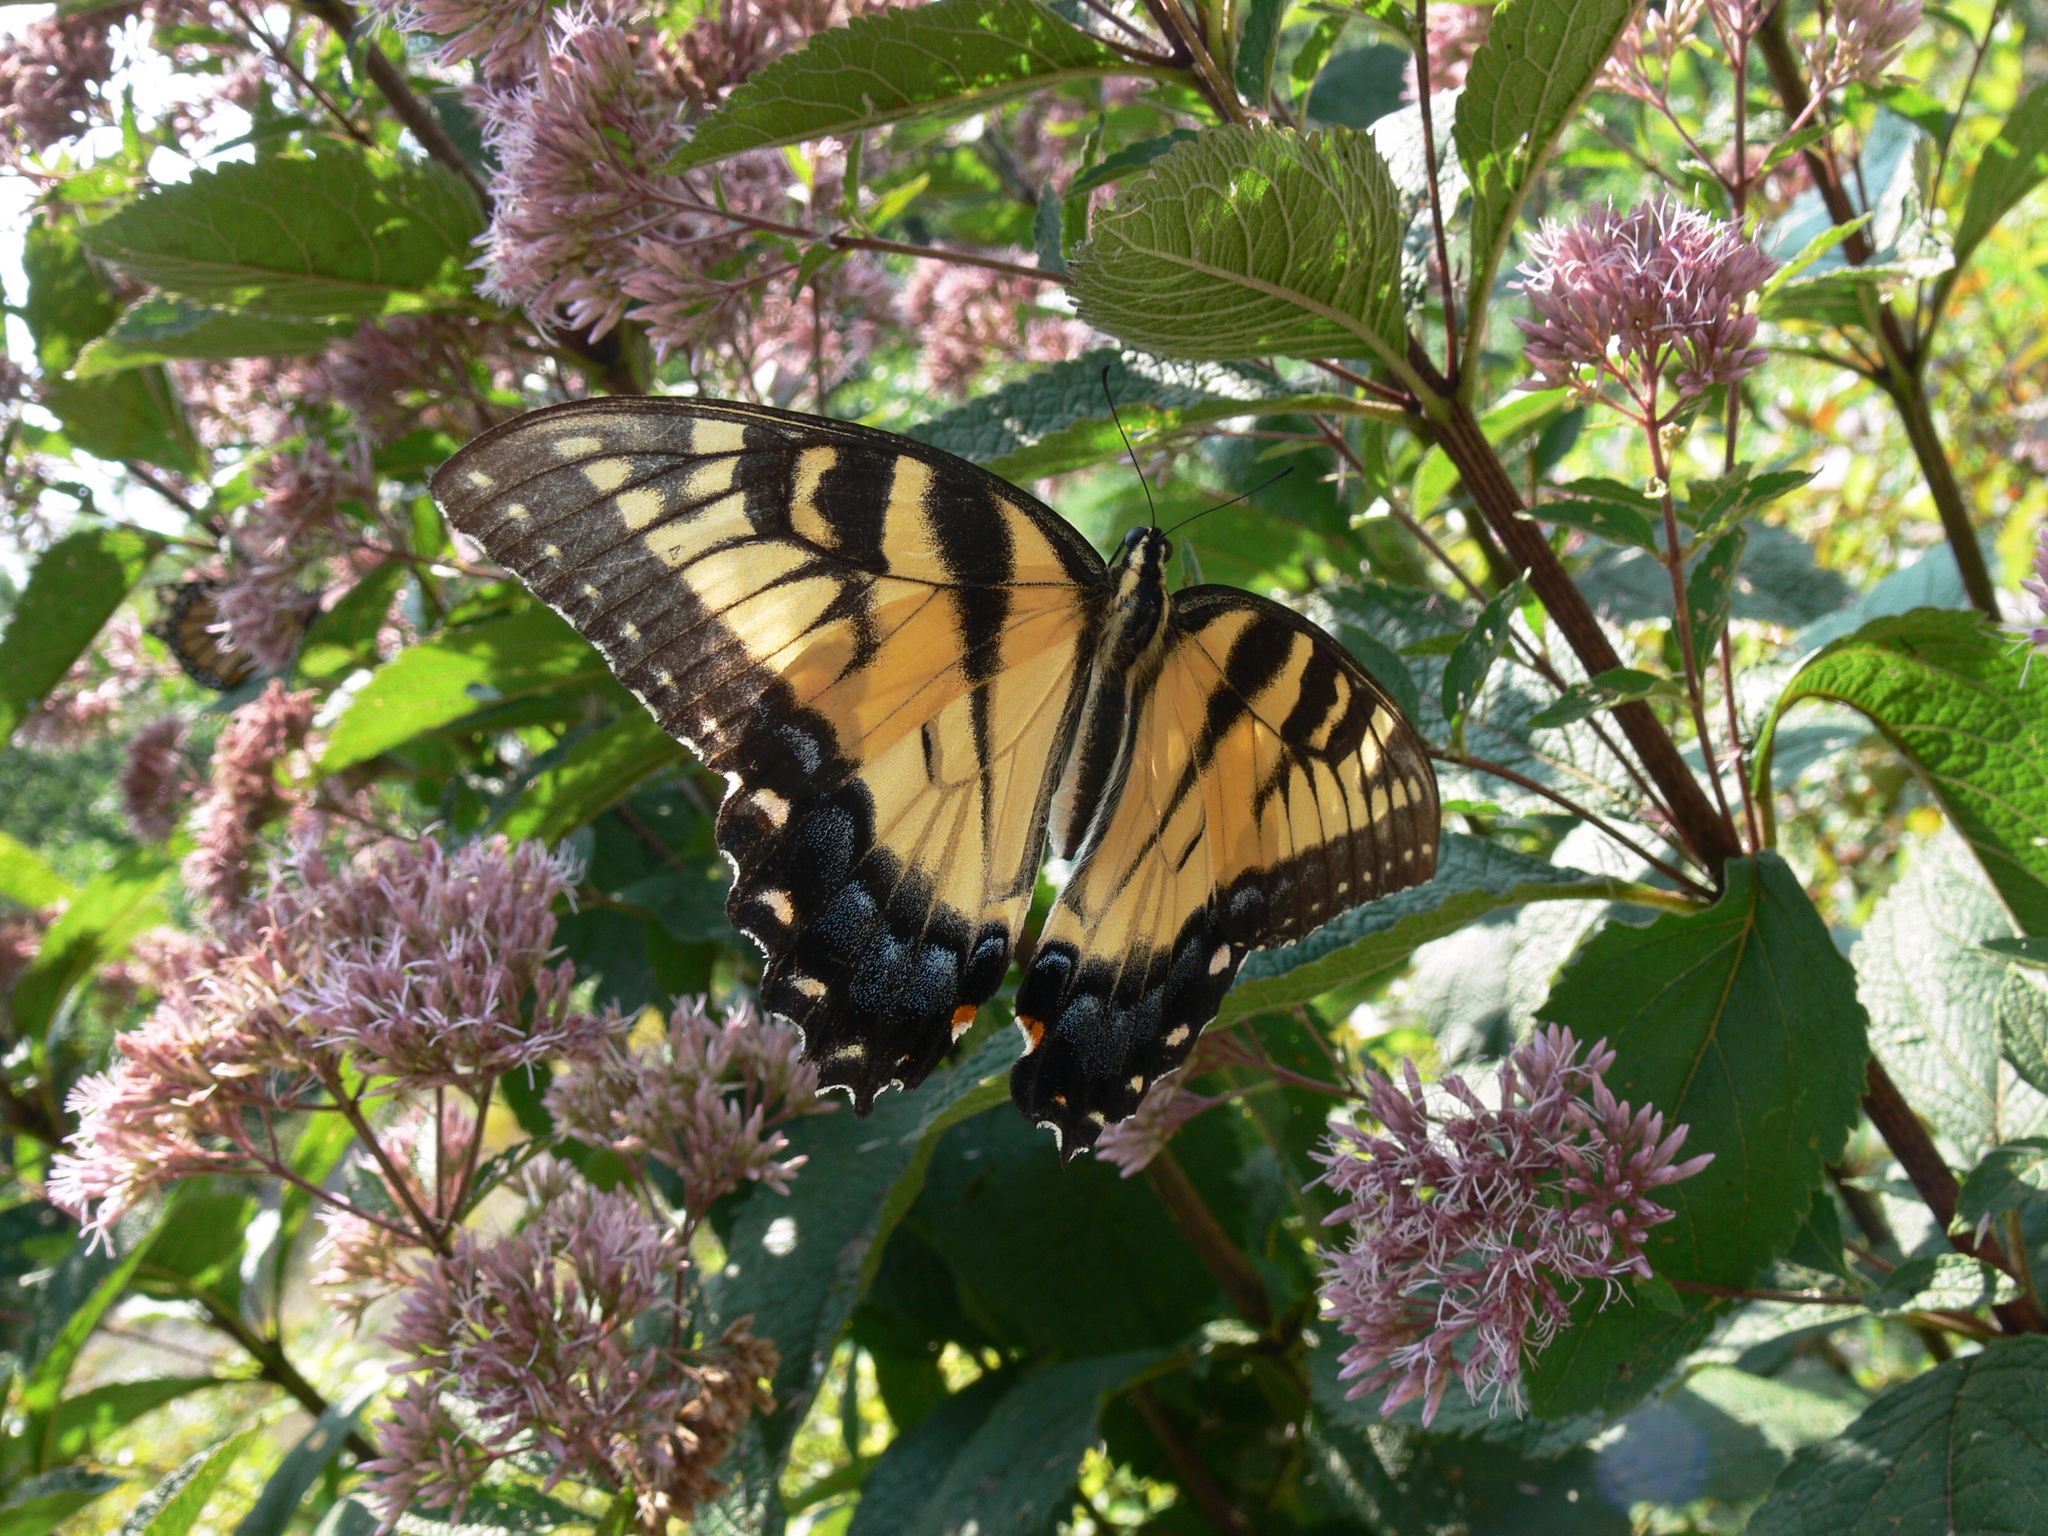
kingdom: Animalia
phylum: Arthropoda
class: Insecta
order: Lepidoptera
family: Papilionidae
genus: Papilio
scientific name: Papilio glaucus
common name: Tiger swallowtail
